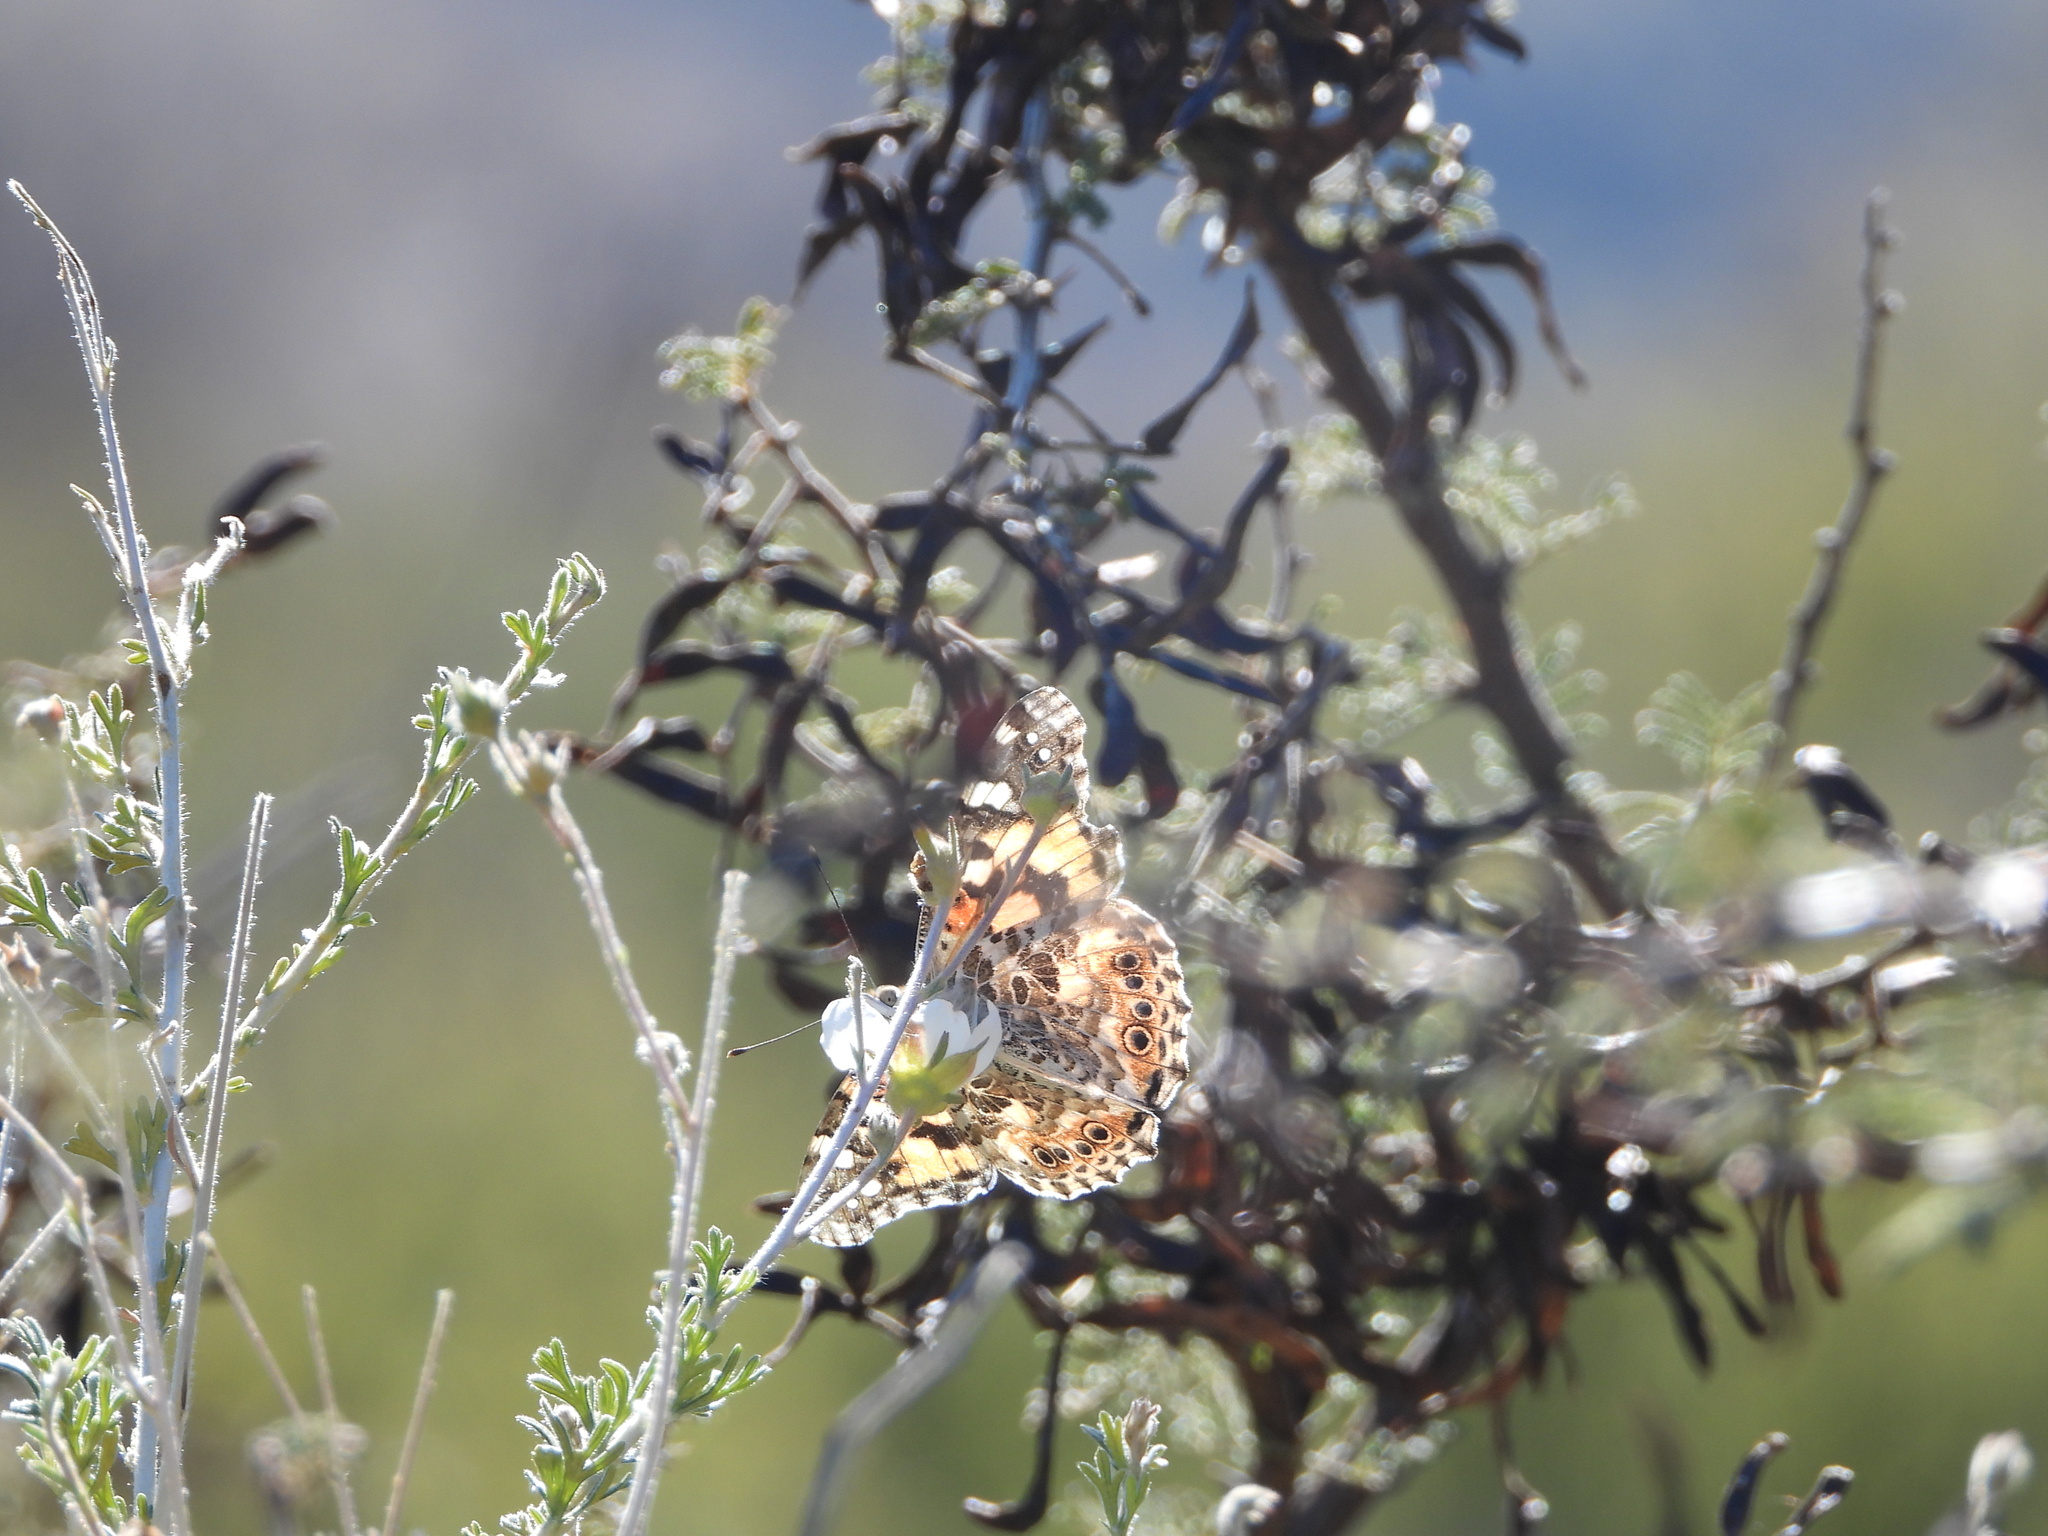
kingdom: Animalia
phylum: Arthropoda
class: Insecta
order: Lepidoptera
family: Nymphalidae
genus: Vanessa
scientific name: Vanessa cardui
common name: Painted lady
